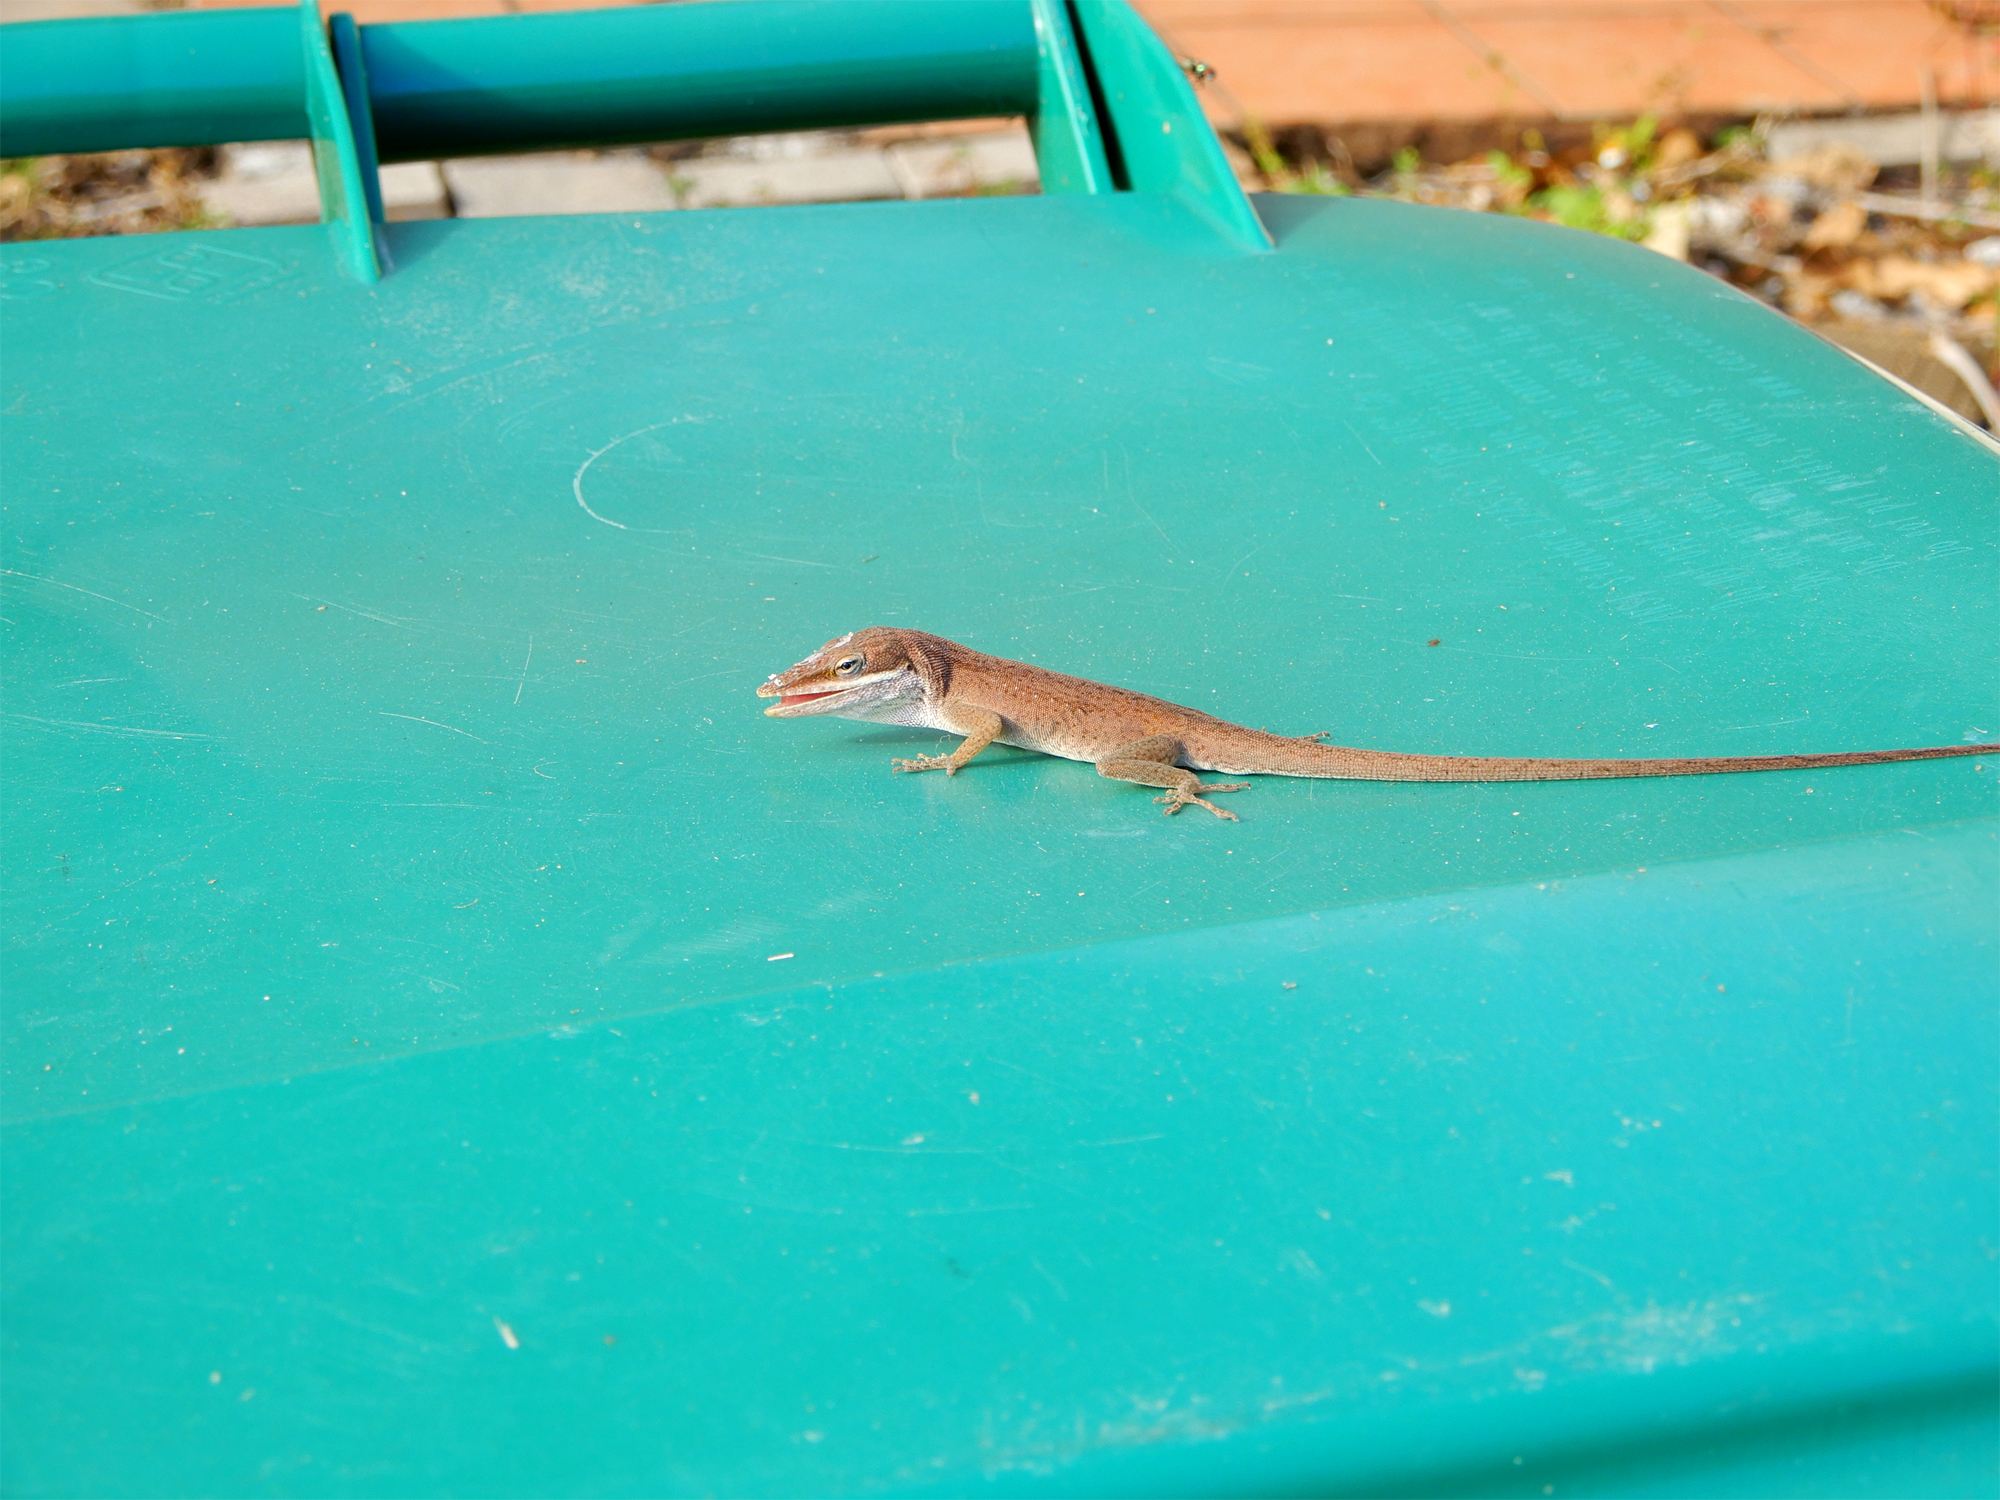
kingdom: Animalia
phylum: Chordata
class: Squamata
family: Dactyloidae
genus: Anolis
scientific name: Anolis carolinensis
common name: Green anole
